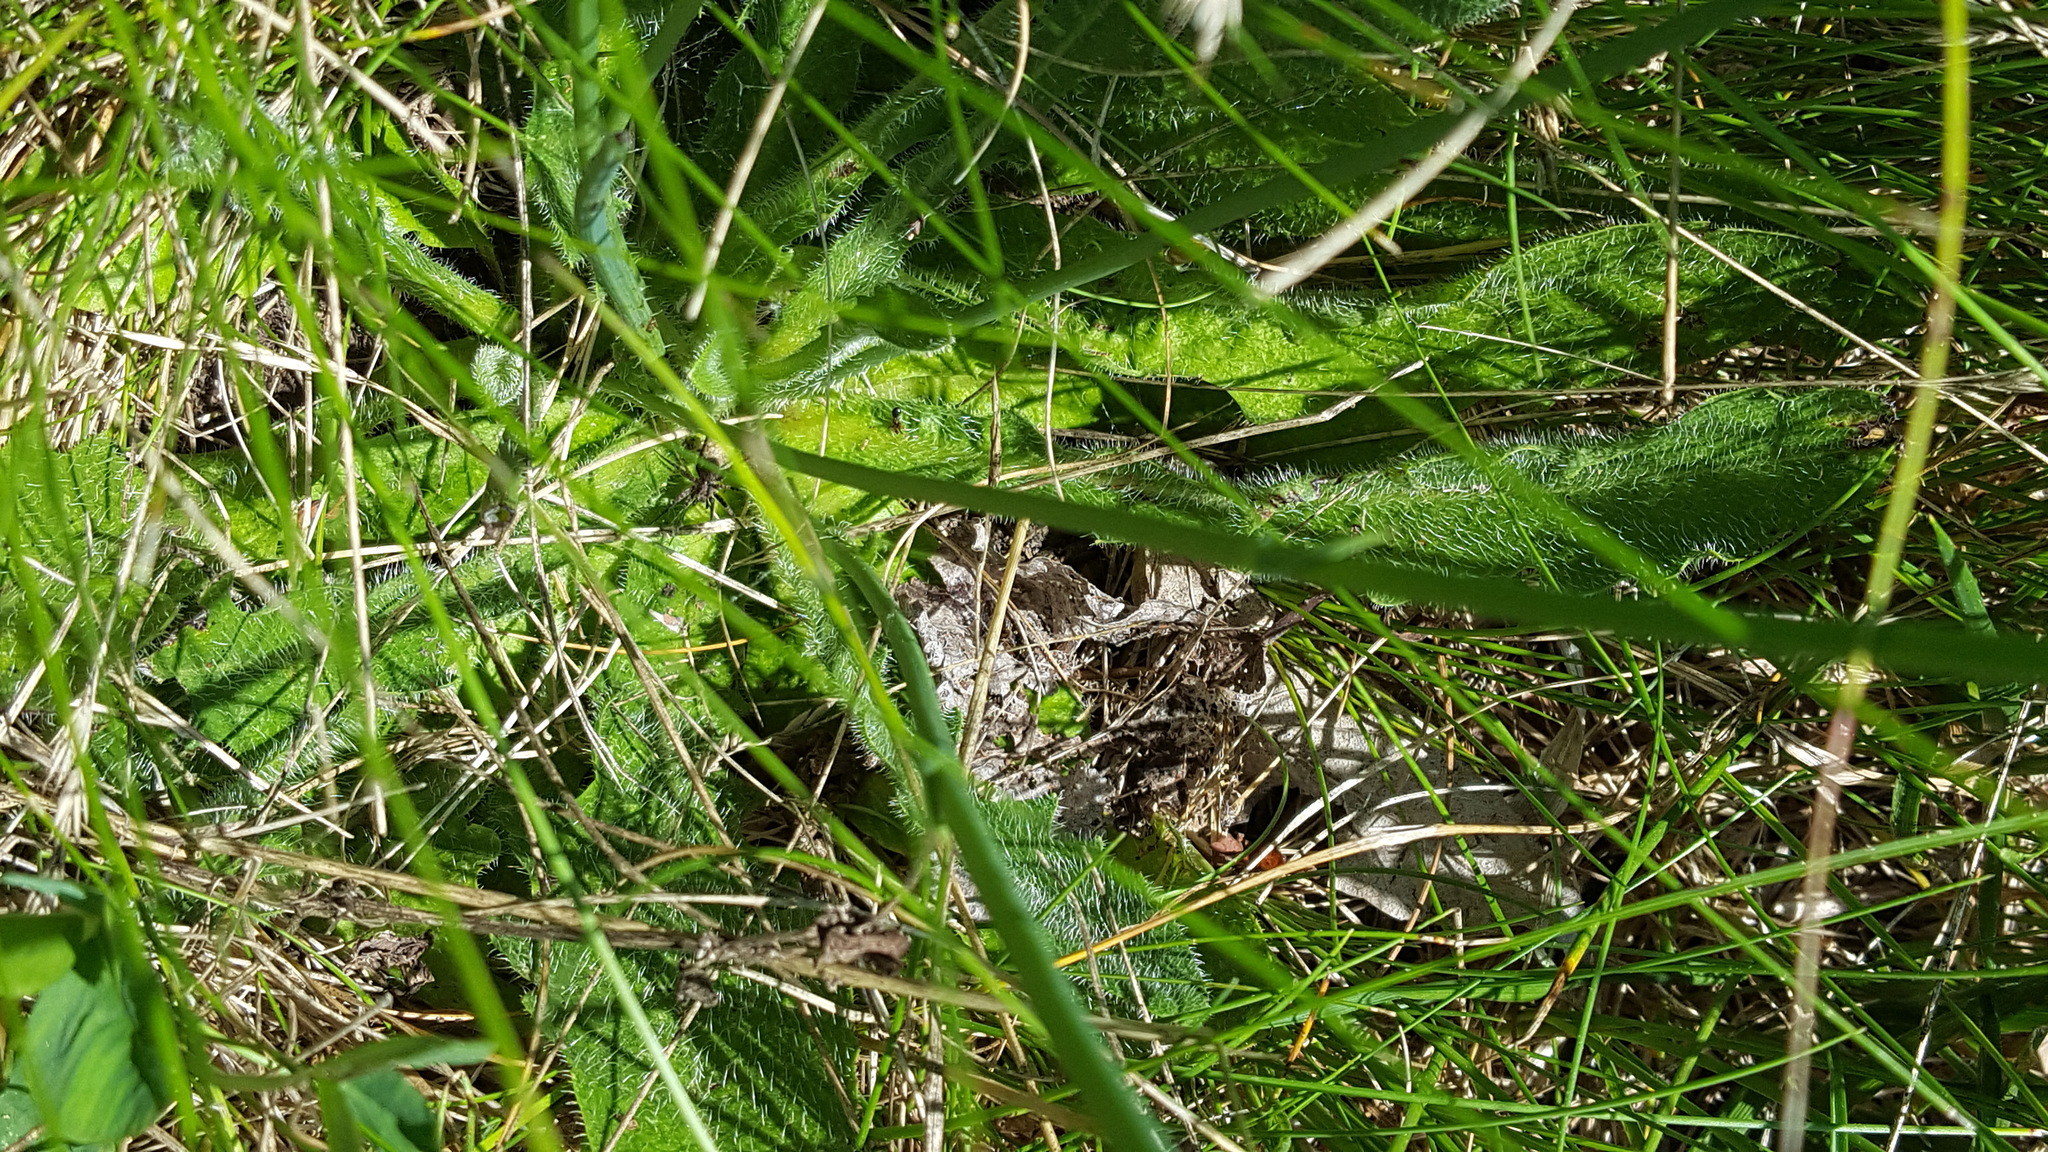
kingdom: Plantae
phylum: Tracheophyta
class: Magnoliopsida
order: Asterales
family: Asteraceae
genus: Hypochaeris
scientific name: Hypochaeris radicata
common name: Flatweed
